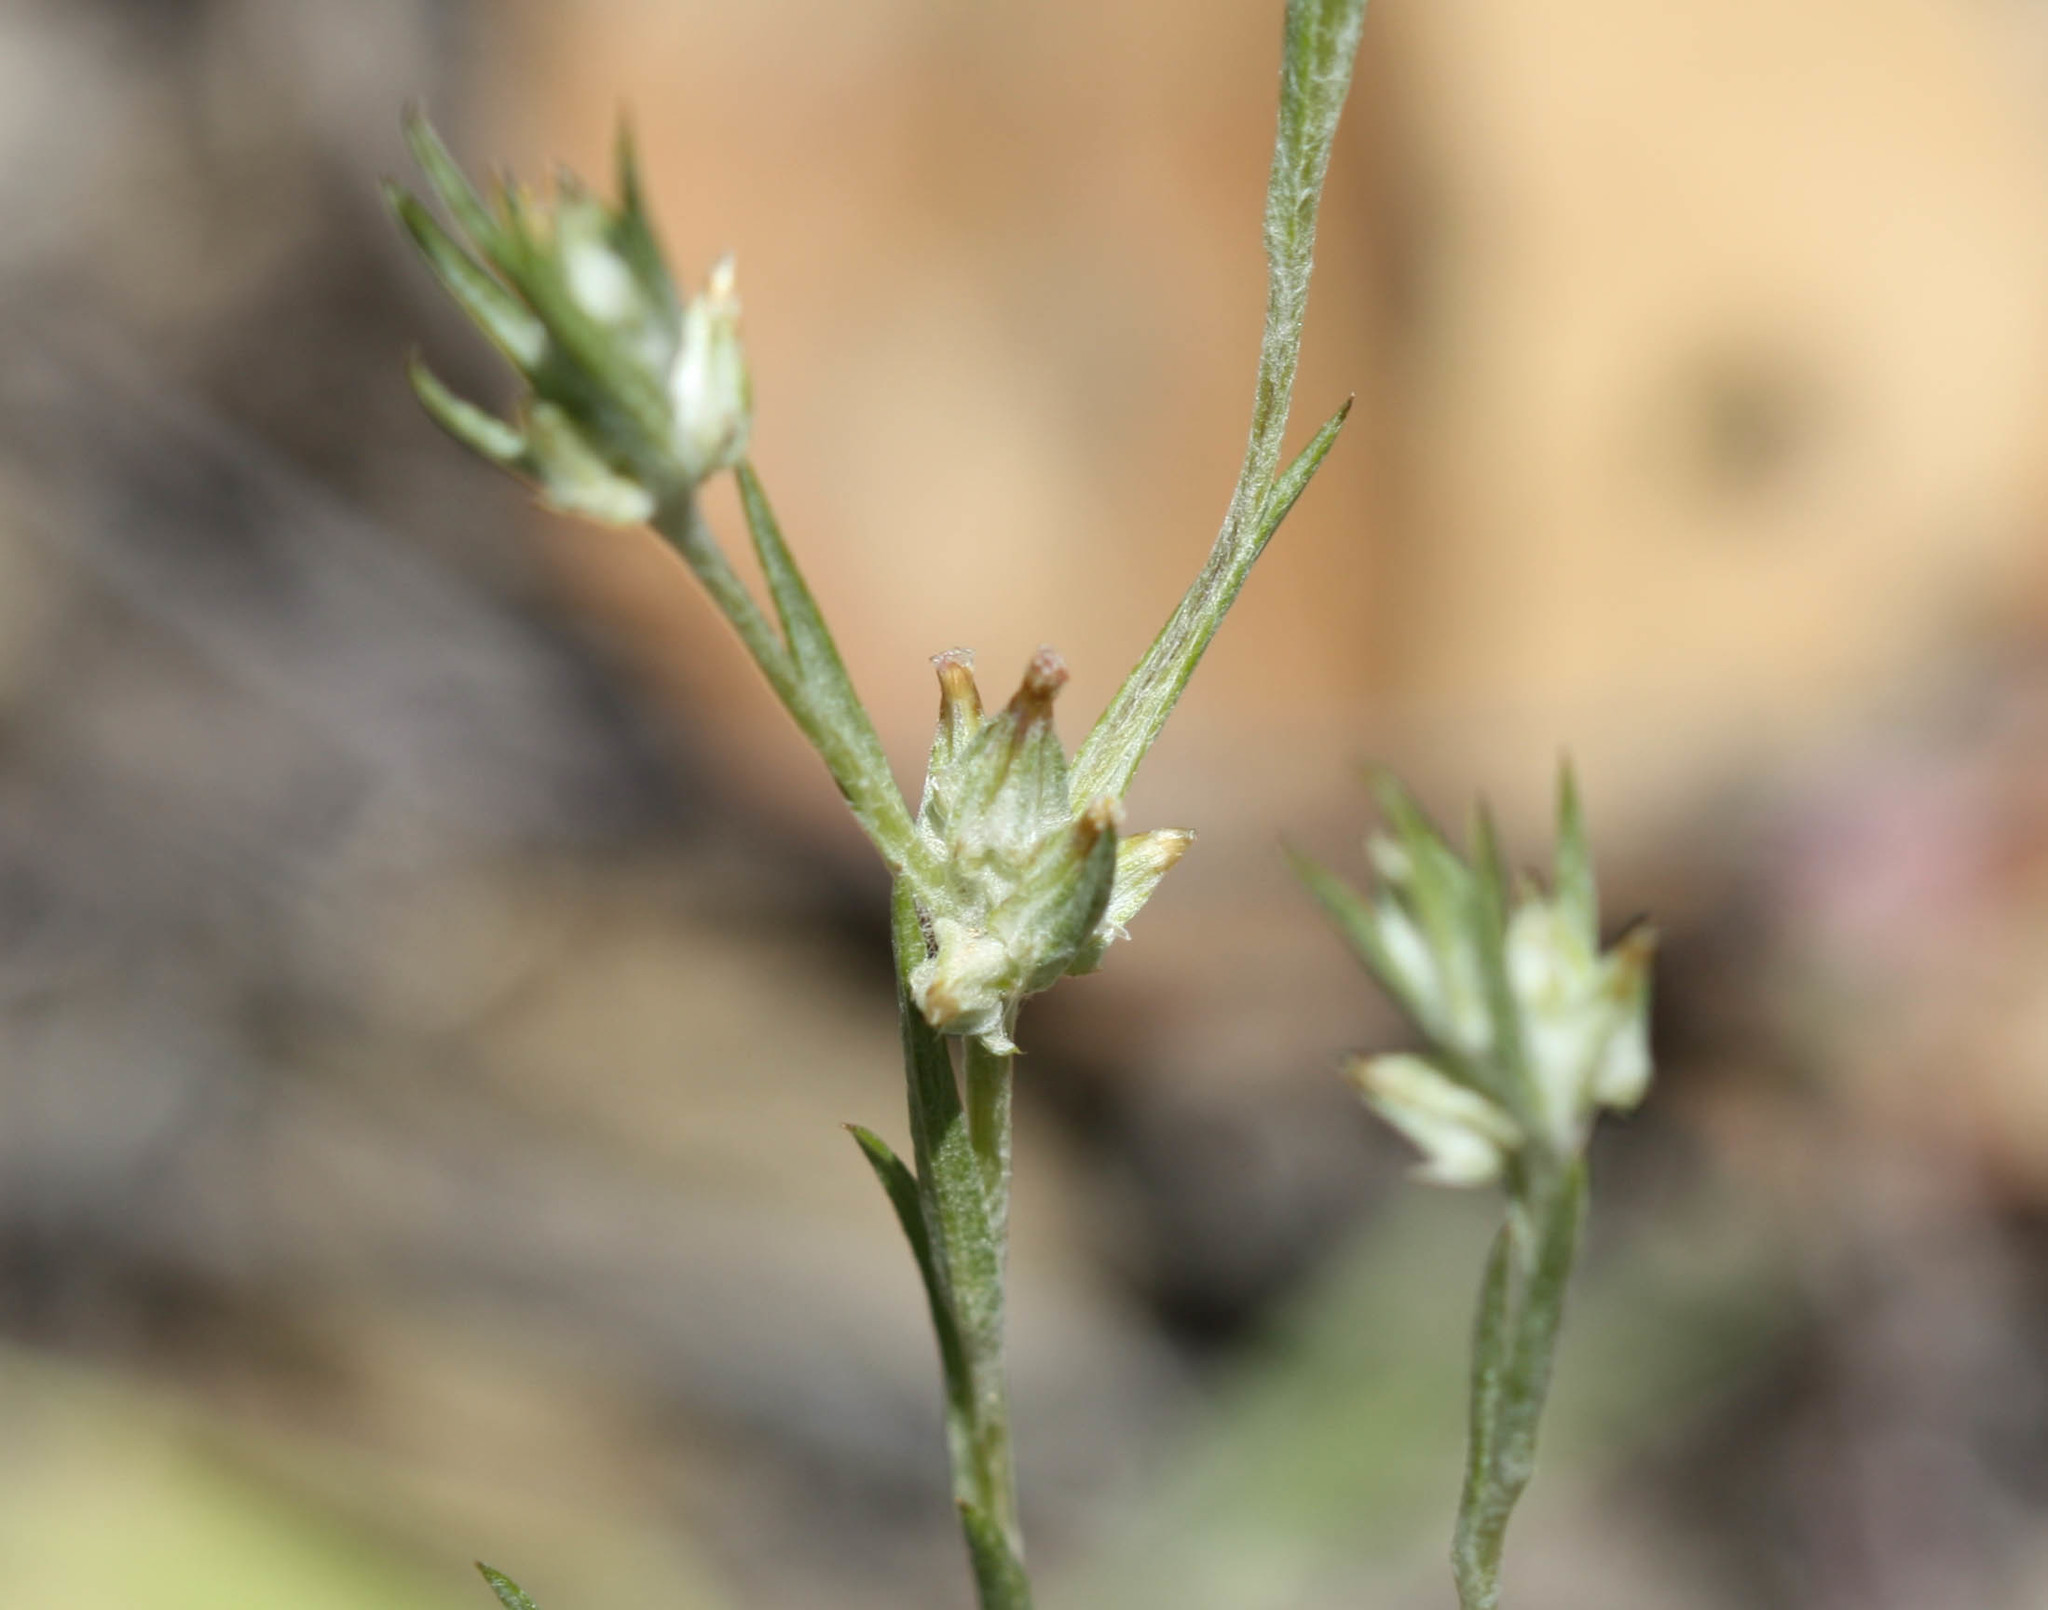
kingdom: Plantae
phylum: Tracheophyta
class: Magnoliopsida
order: Asterales
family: Asteraceae
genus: Logfia
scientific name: Logfia gallica
